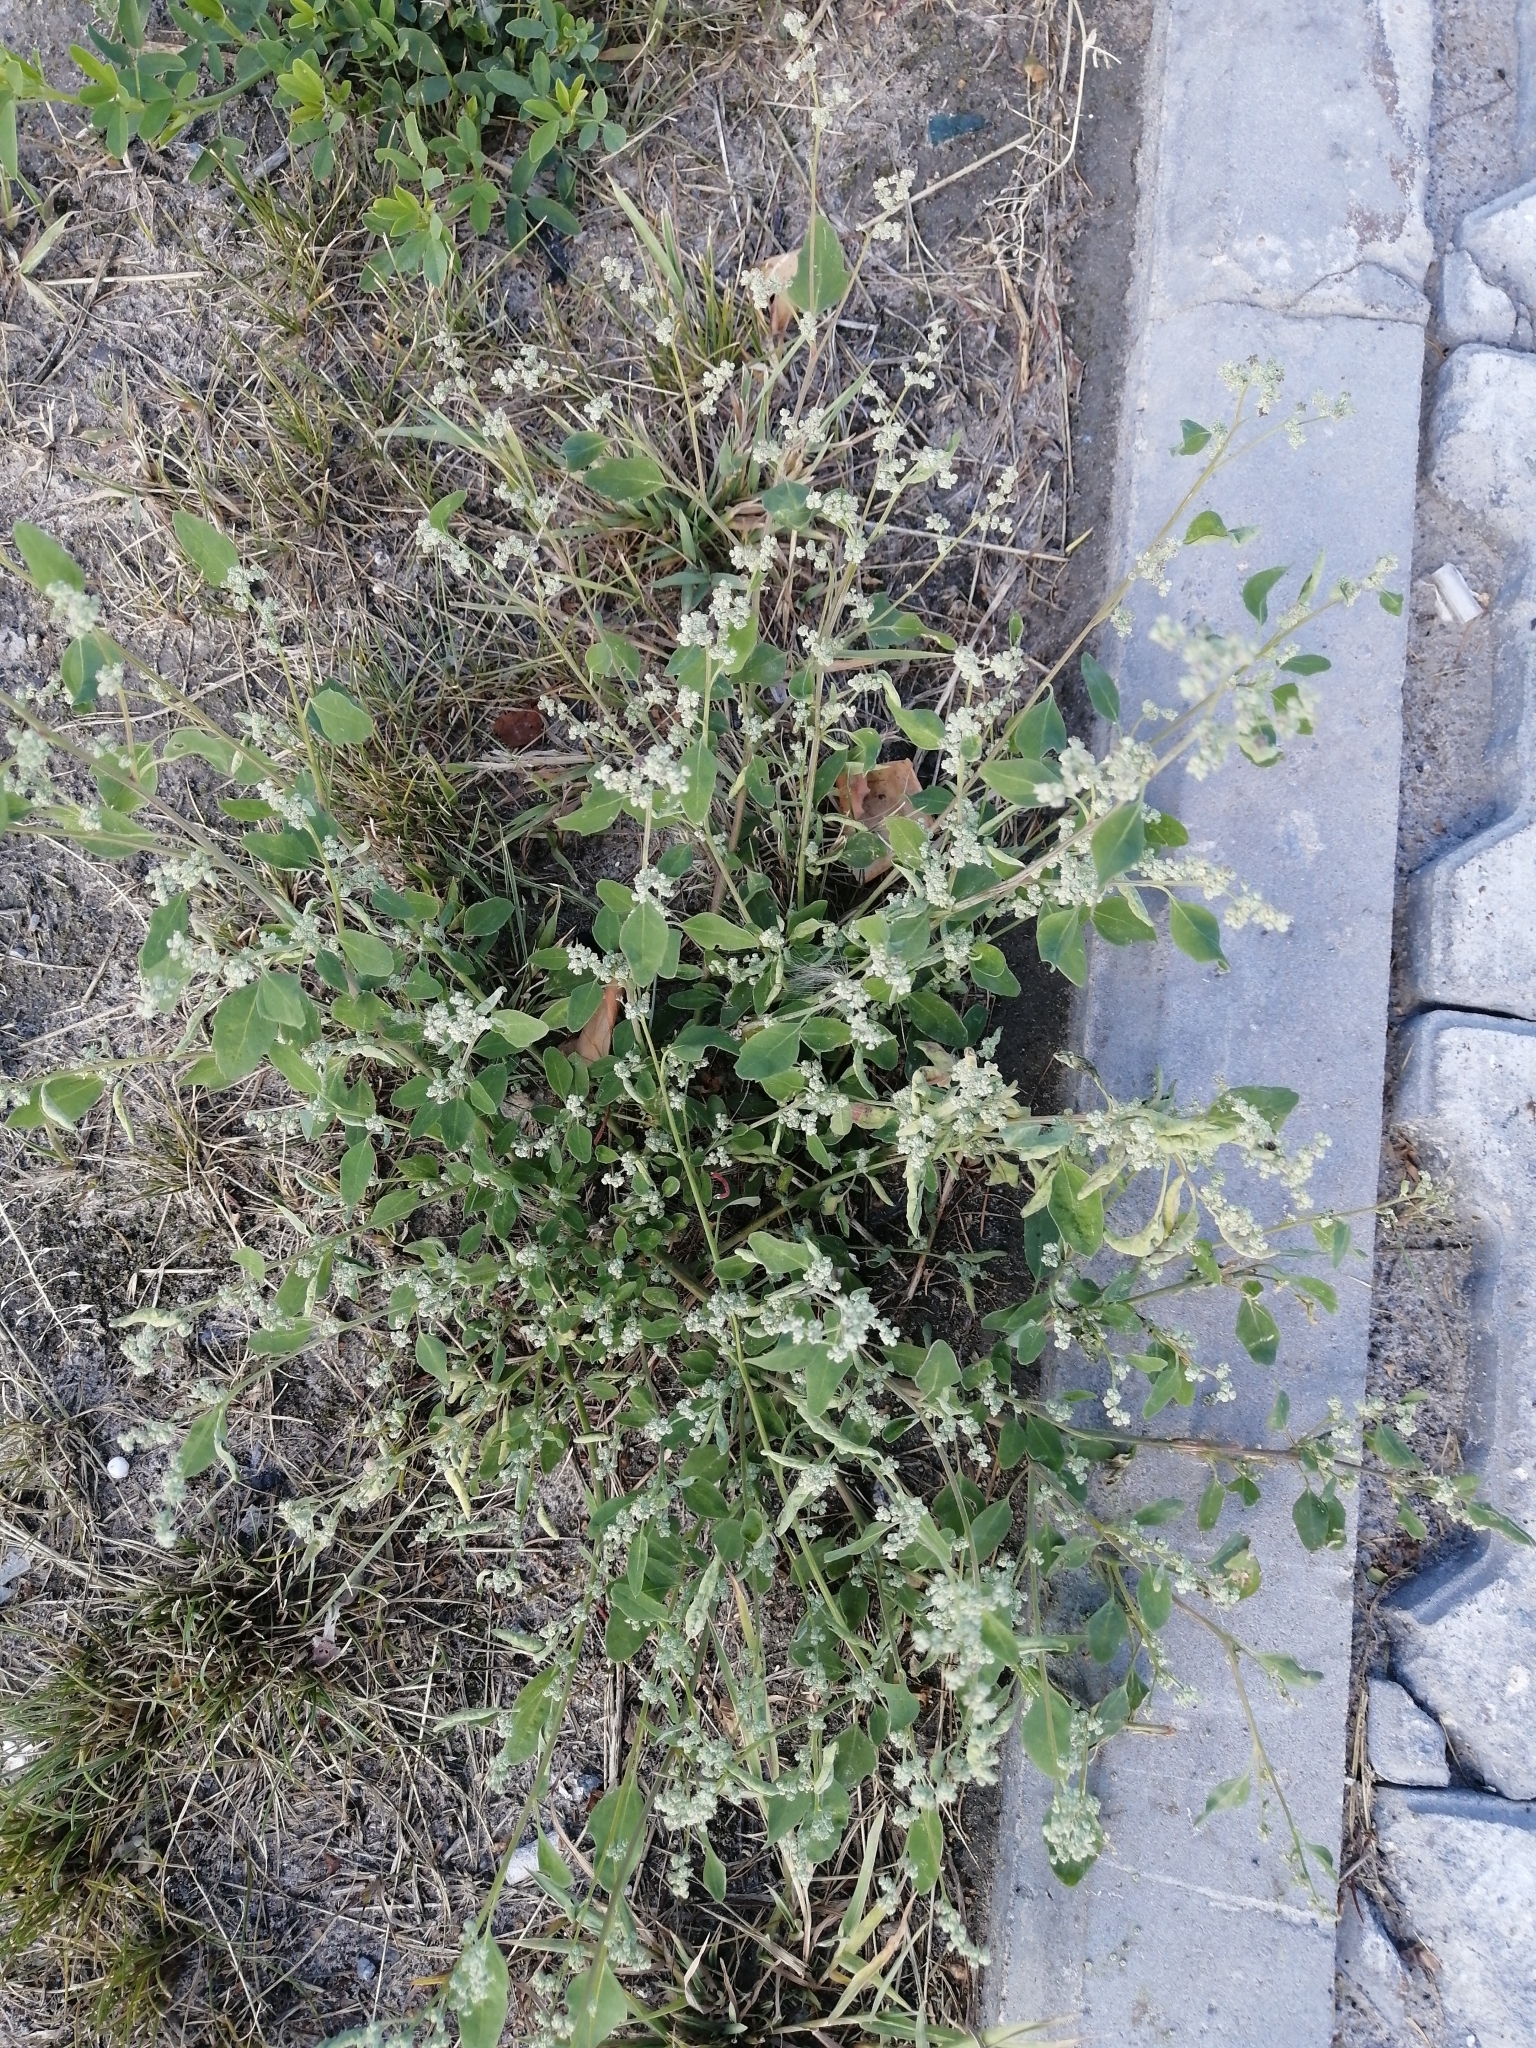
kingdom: Plantae
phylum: Tracheophyta
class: Magnoliopsida
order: Caryophyllales
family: Amaranthaceae
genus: Chenopodium
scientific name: Chenopodium album
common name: Fat-hen
